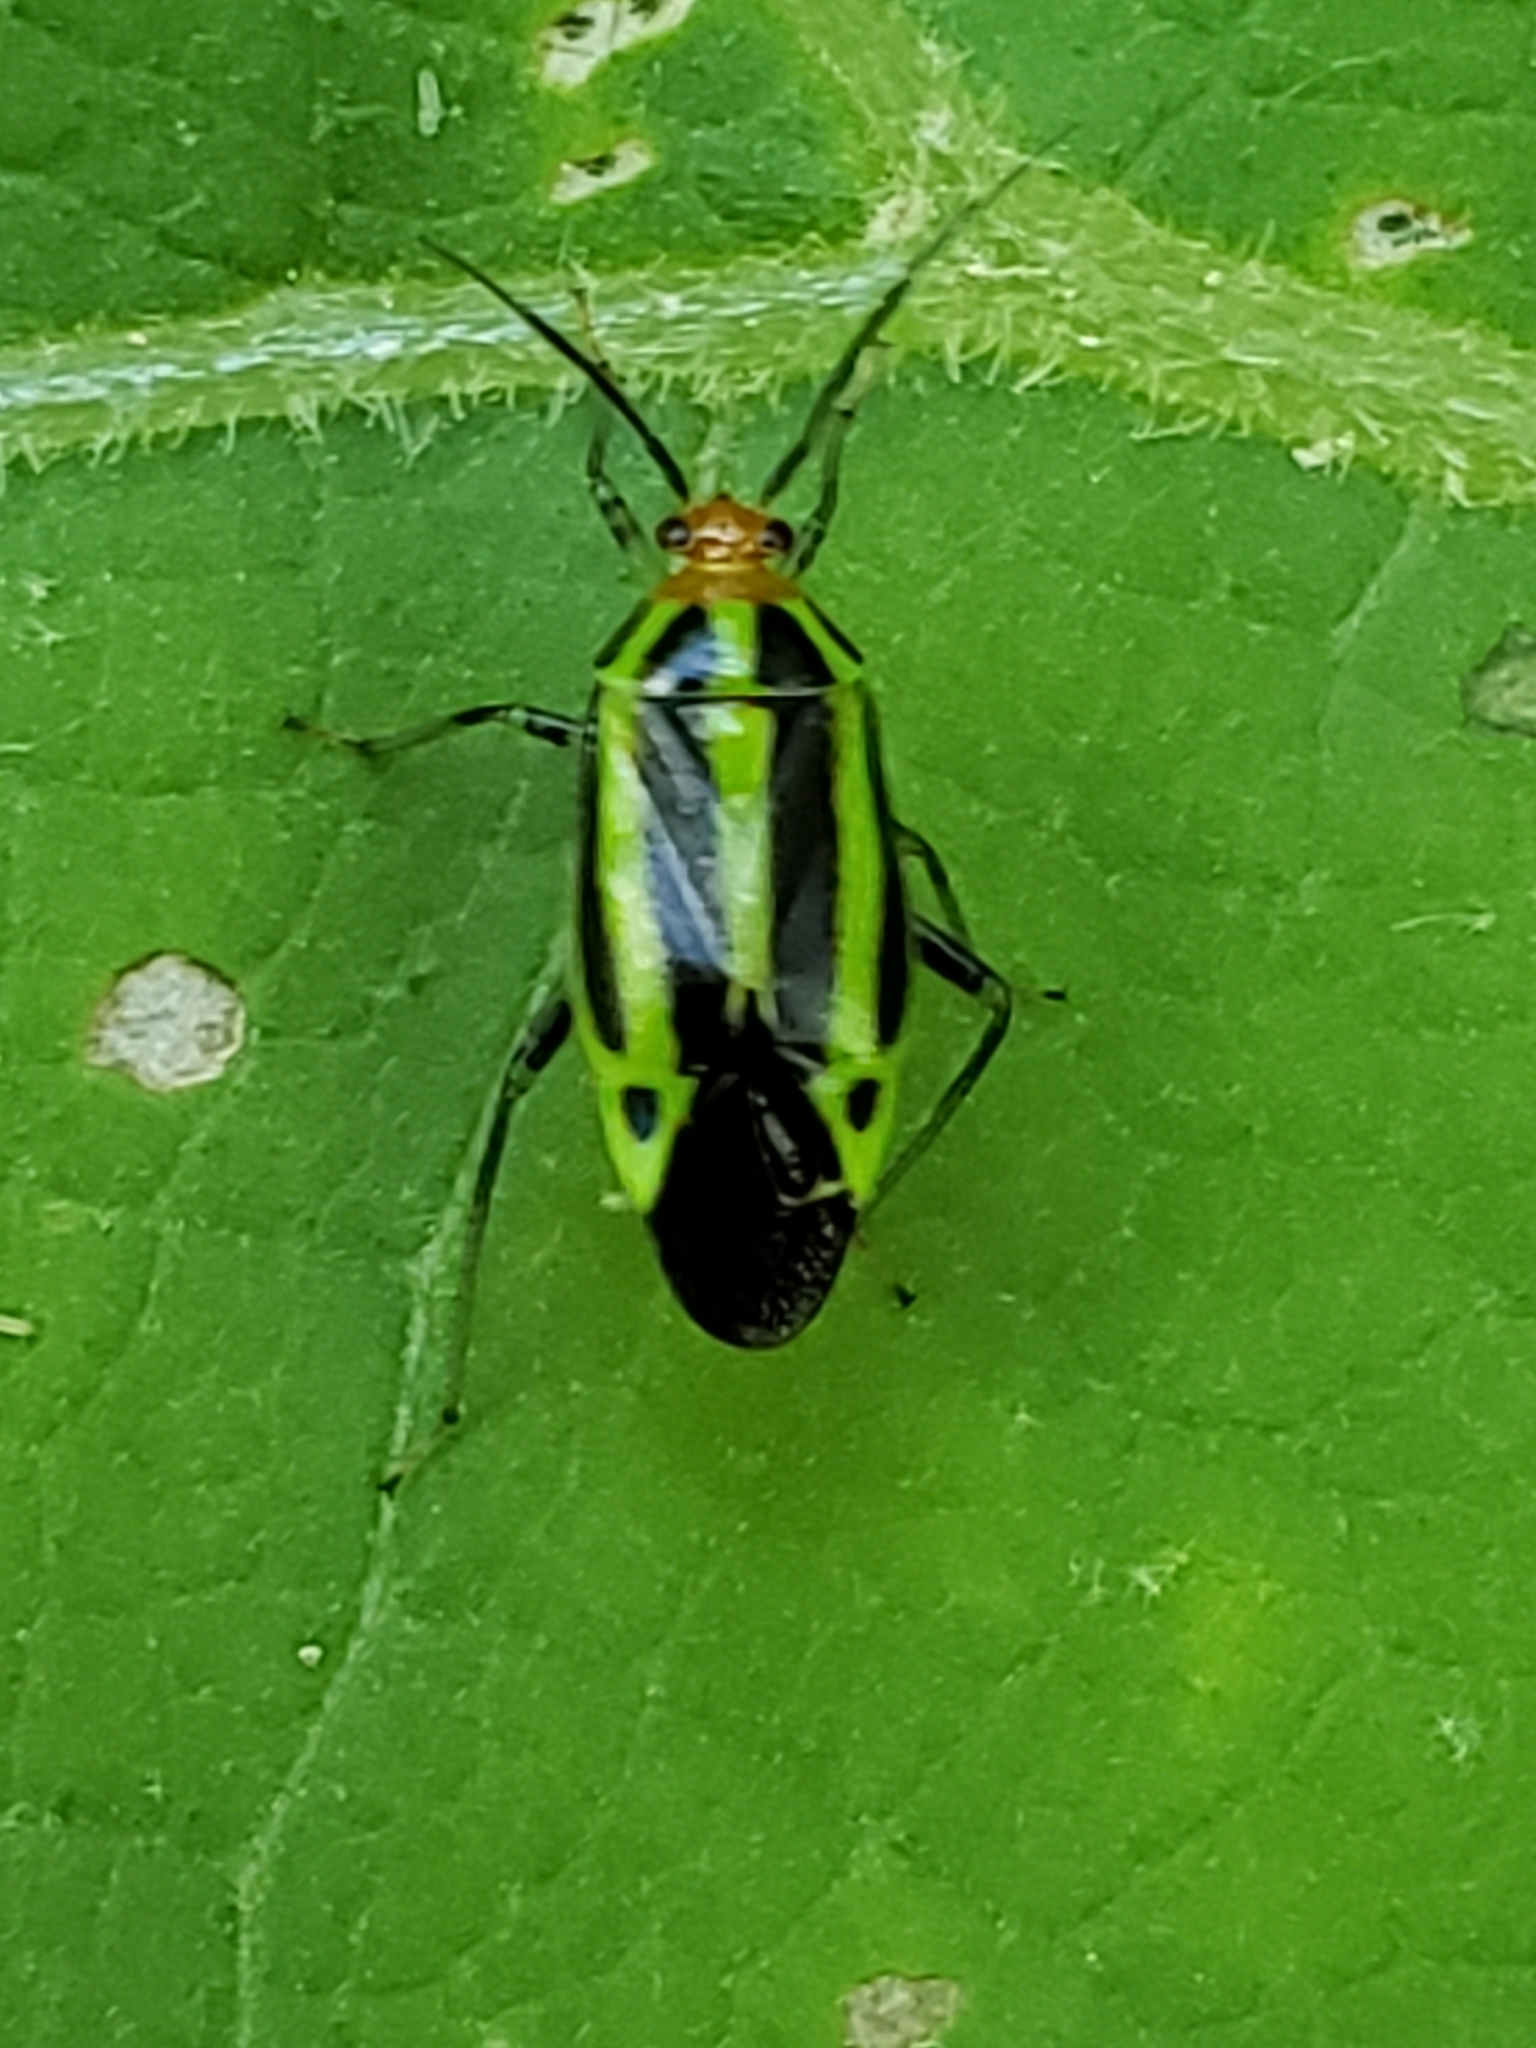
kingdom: Animalia
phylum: Arthropoda
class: Insecta
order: Hemiptera
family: Miridae
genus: Poecilocapsus
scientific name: Poecilocapsus lineatus
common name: Four-lined plant bug
